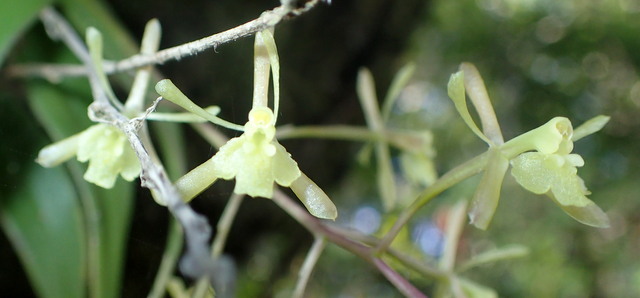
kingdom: Plantae
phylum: Tracheophyta
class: Liliopsida
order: Asparagales
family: Orchidaceae
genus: Epidendrum
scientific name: Epidendrum conopseum
